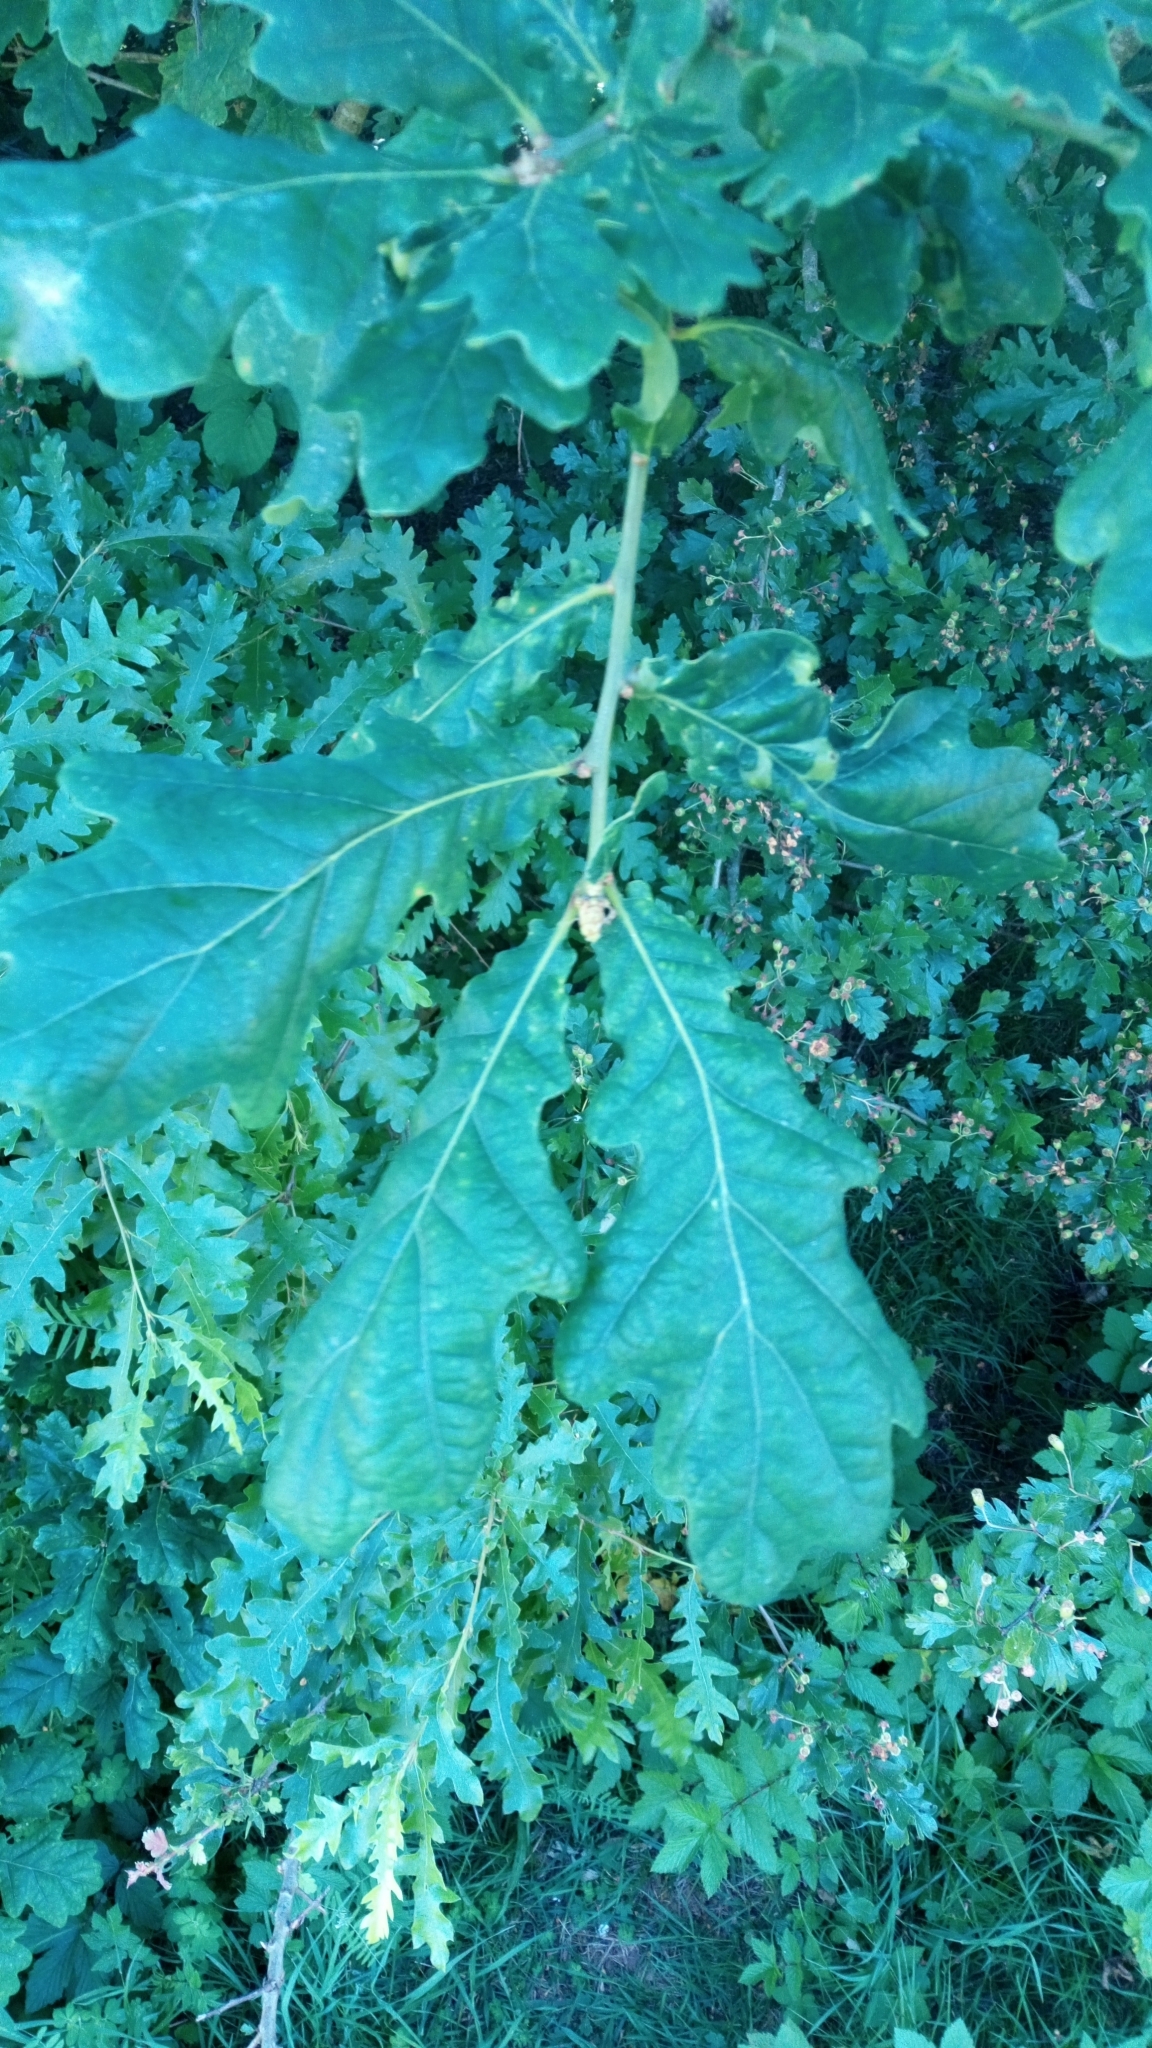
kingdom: Plantae
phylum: Tracheophyta
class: Magnoliopsida
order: Fagales
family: Fagaceae
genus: Quercus
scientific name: Quercus robur
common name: Pedunculate oak
